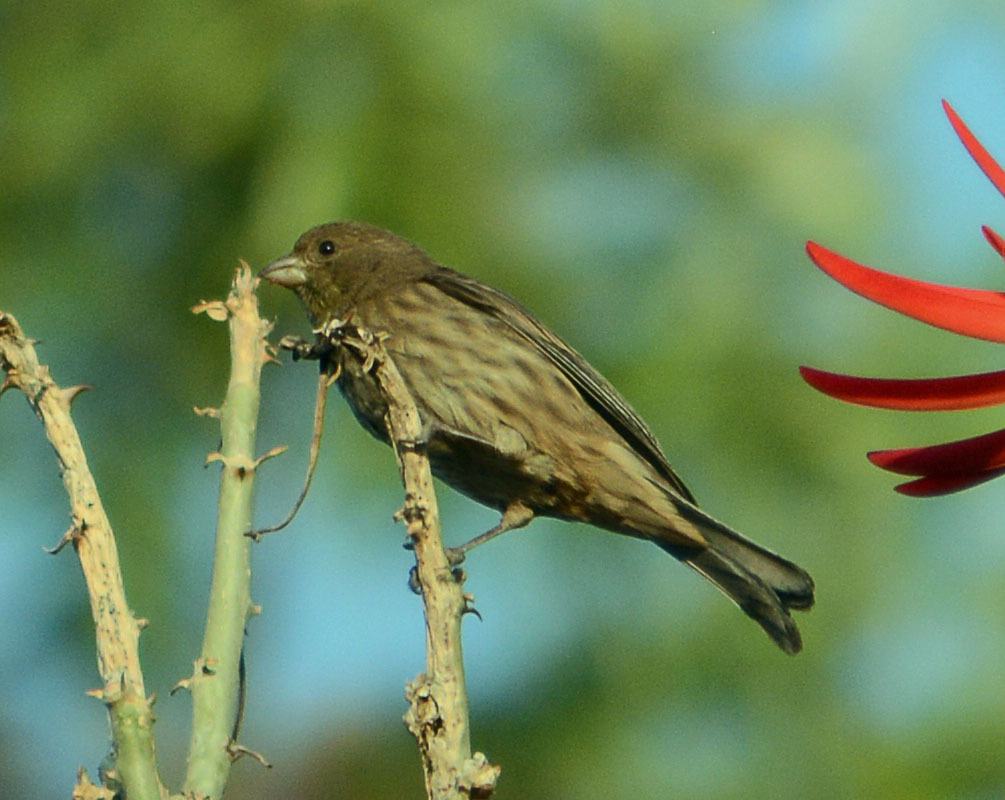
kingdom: Animalia
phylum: Chordata
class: Aves
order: Passeriformes
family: Fringillidae
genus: Haemorhous
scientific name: Haemorhous mexicanus
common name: House finch
